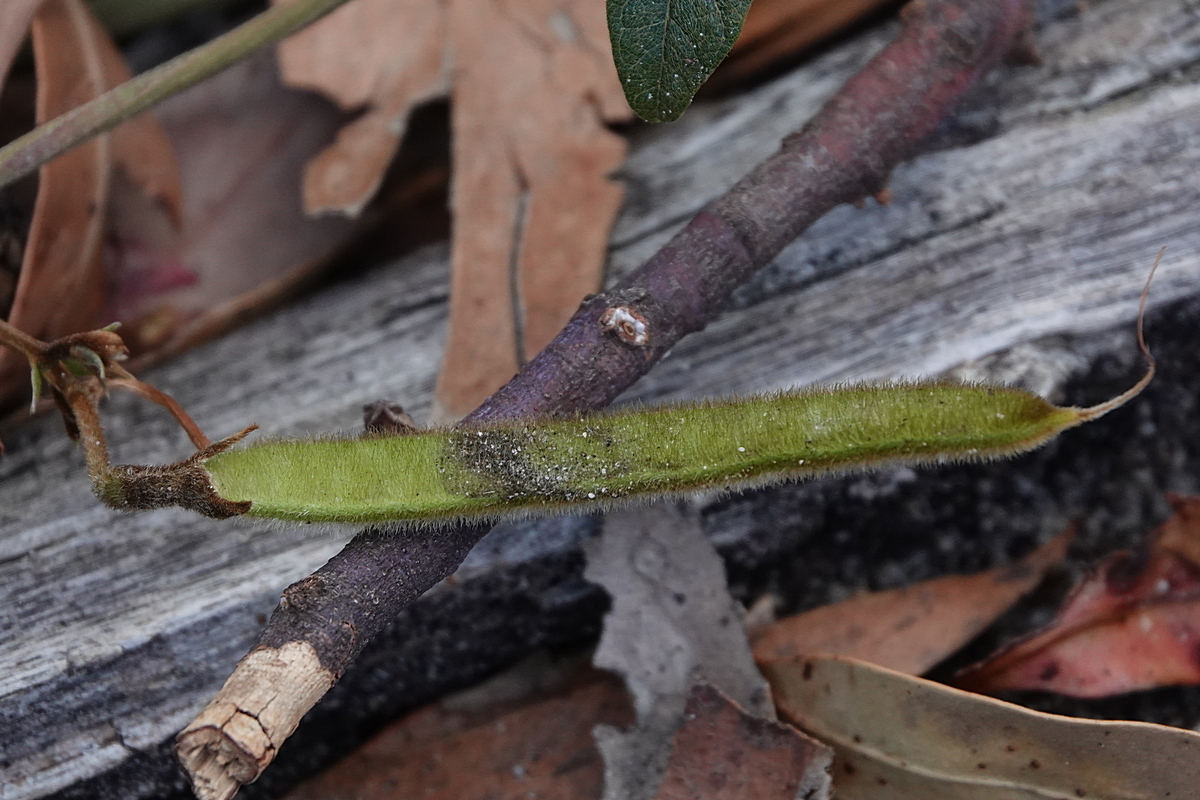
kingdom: Plantae
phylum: Tracheophyta
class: Magnoliopsida
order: Fabales
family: Fabaceae
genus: Kennedia
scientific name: Kennedia rubicunda
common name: Red kennedy-pea
